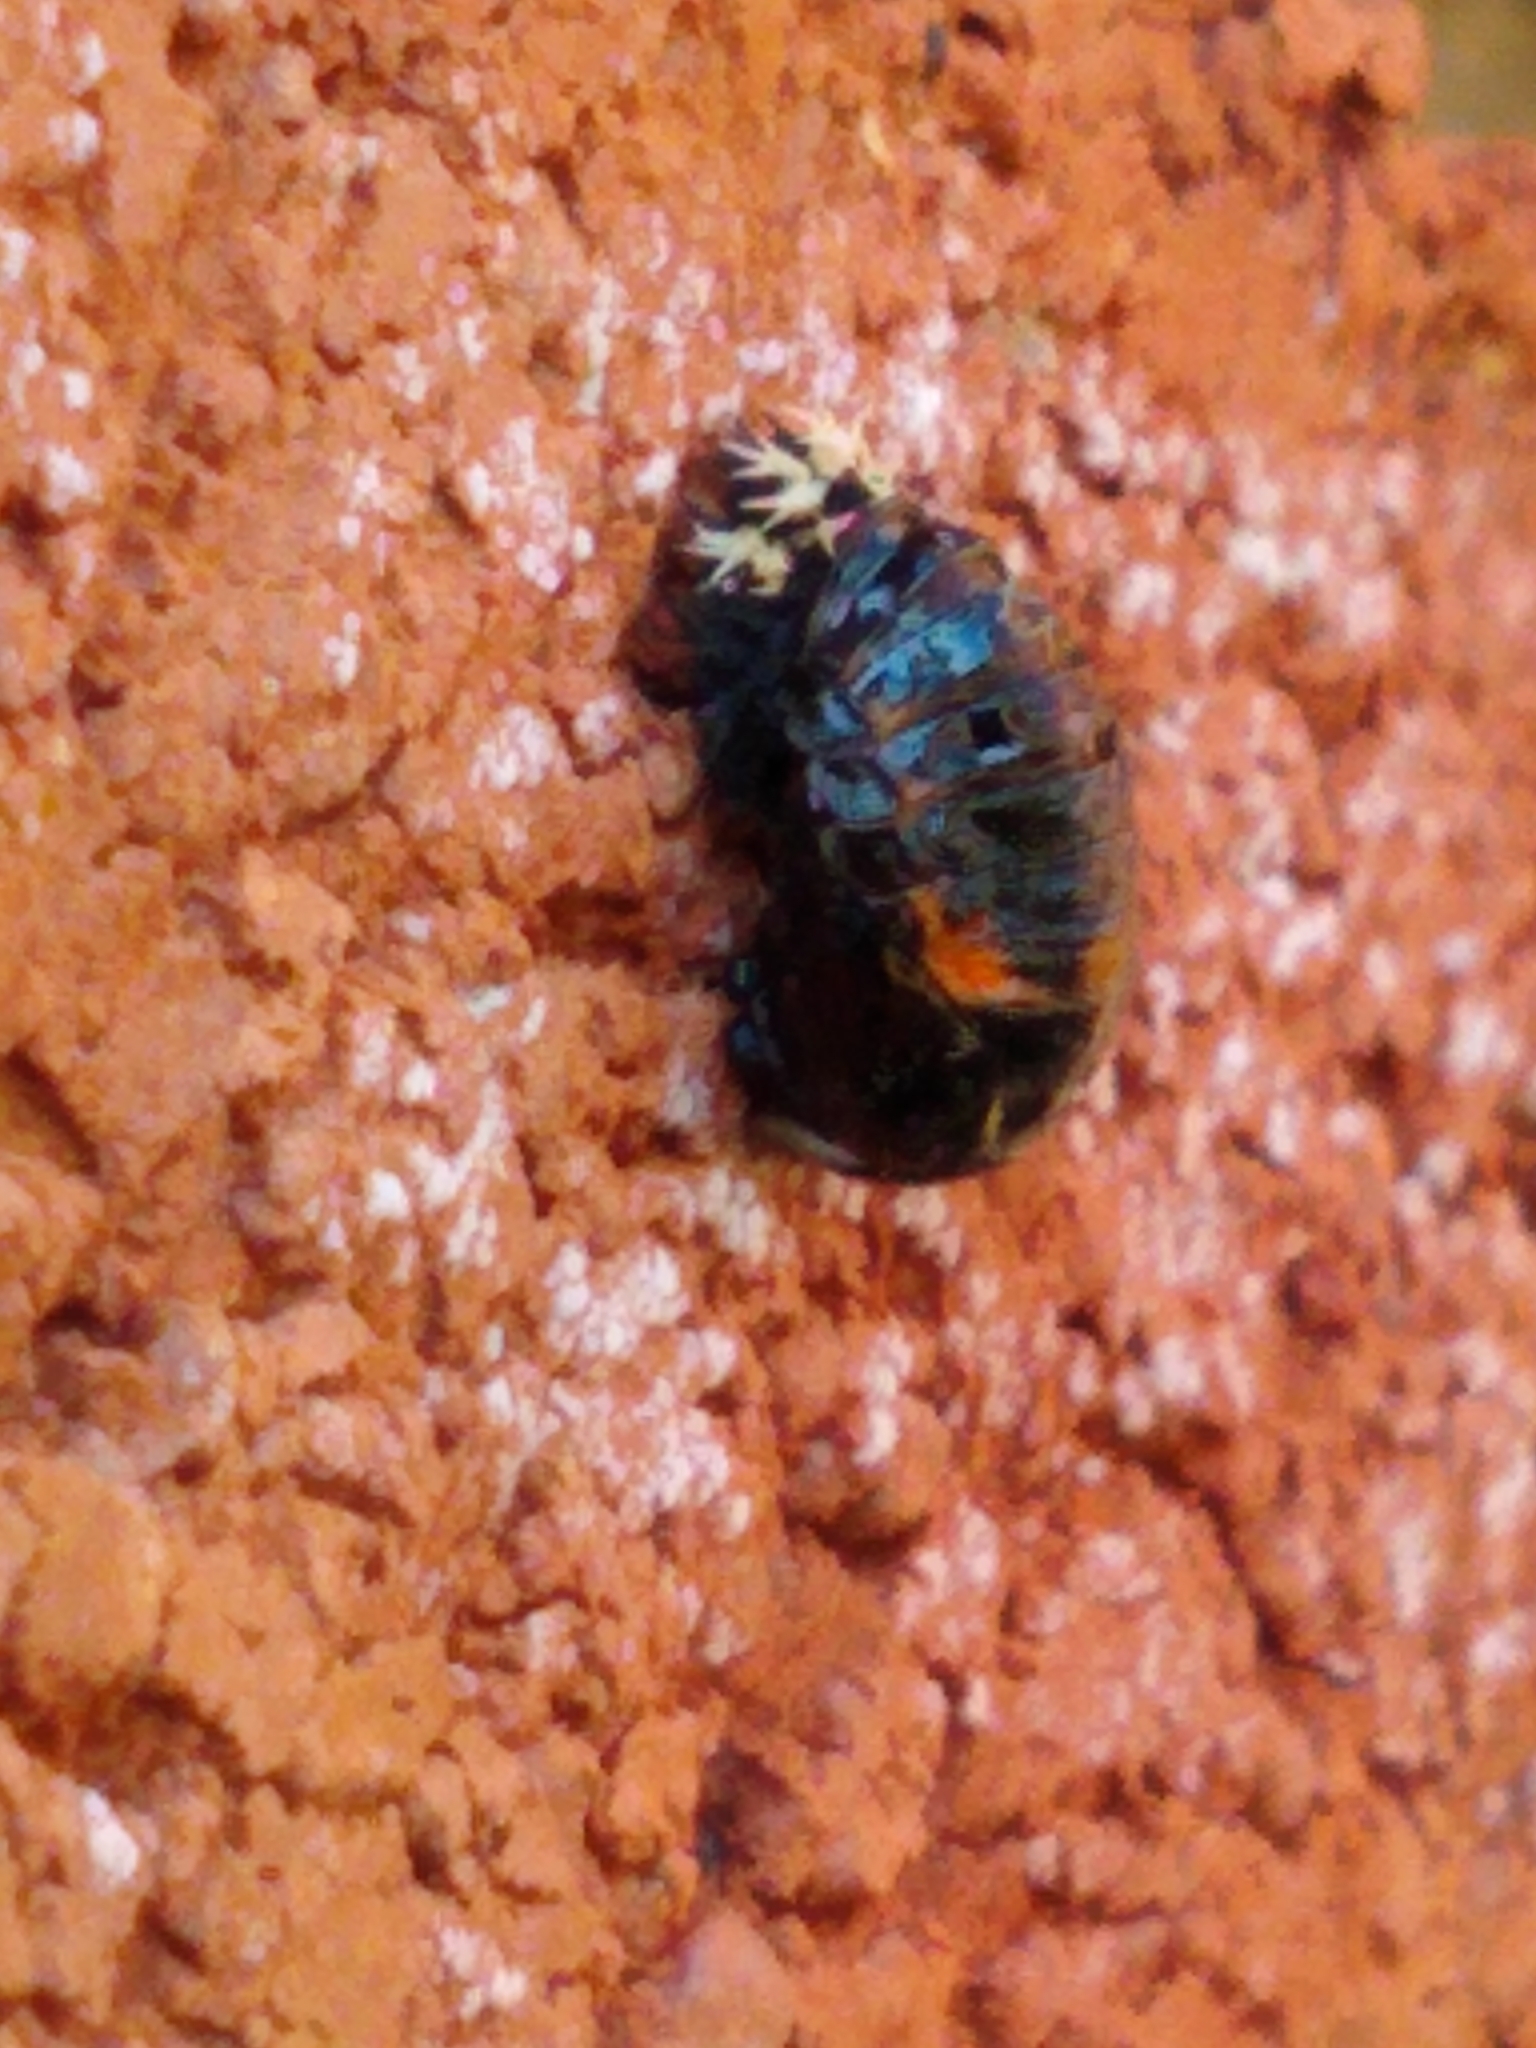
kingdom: Animalia
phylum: Arthropoda
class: Insecta
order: Coleoptera
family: Coccinellidae
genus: Harmonia
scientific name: Harmonia axyridis
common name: Harlequin ladybird
